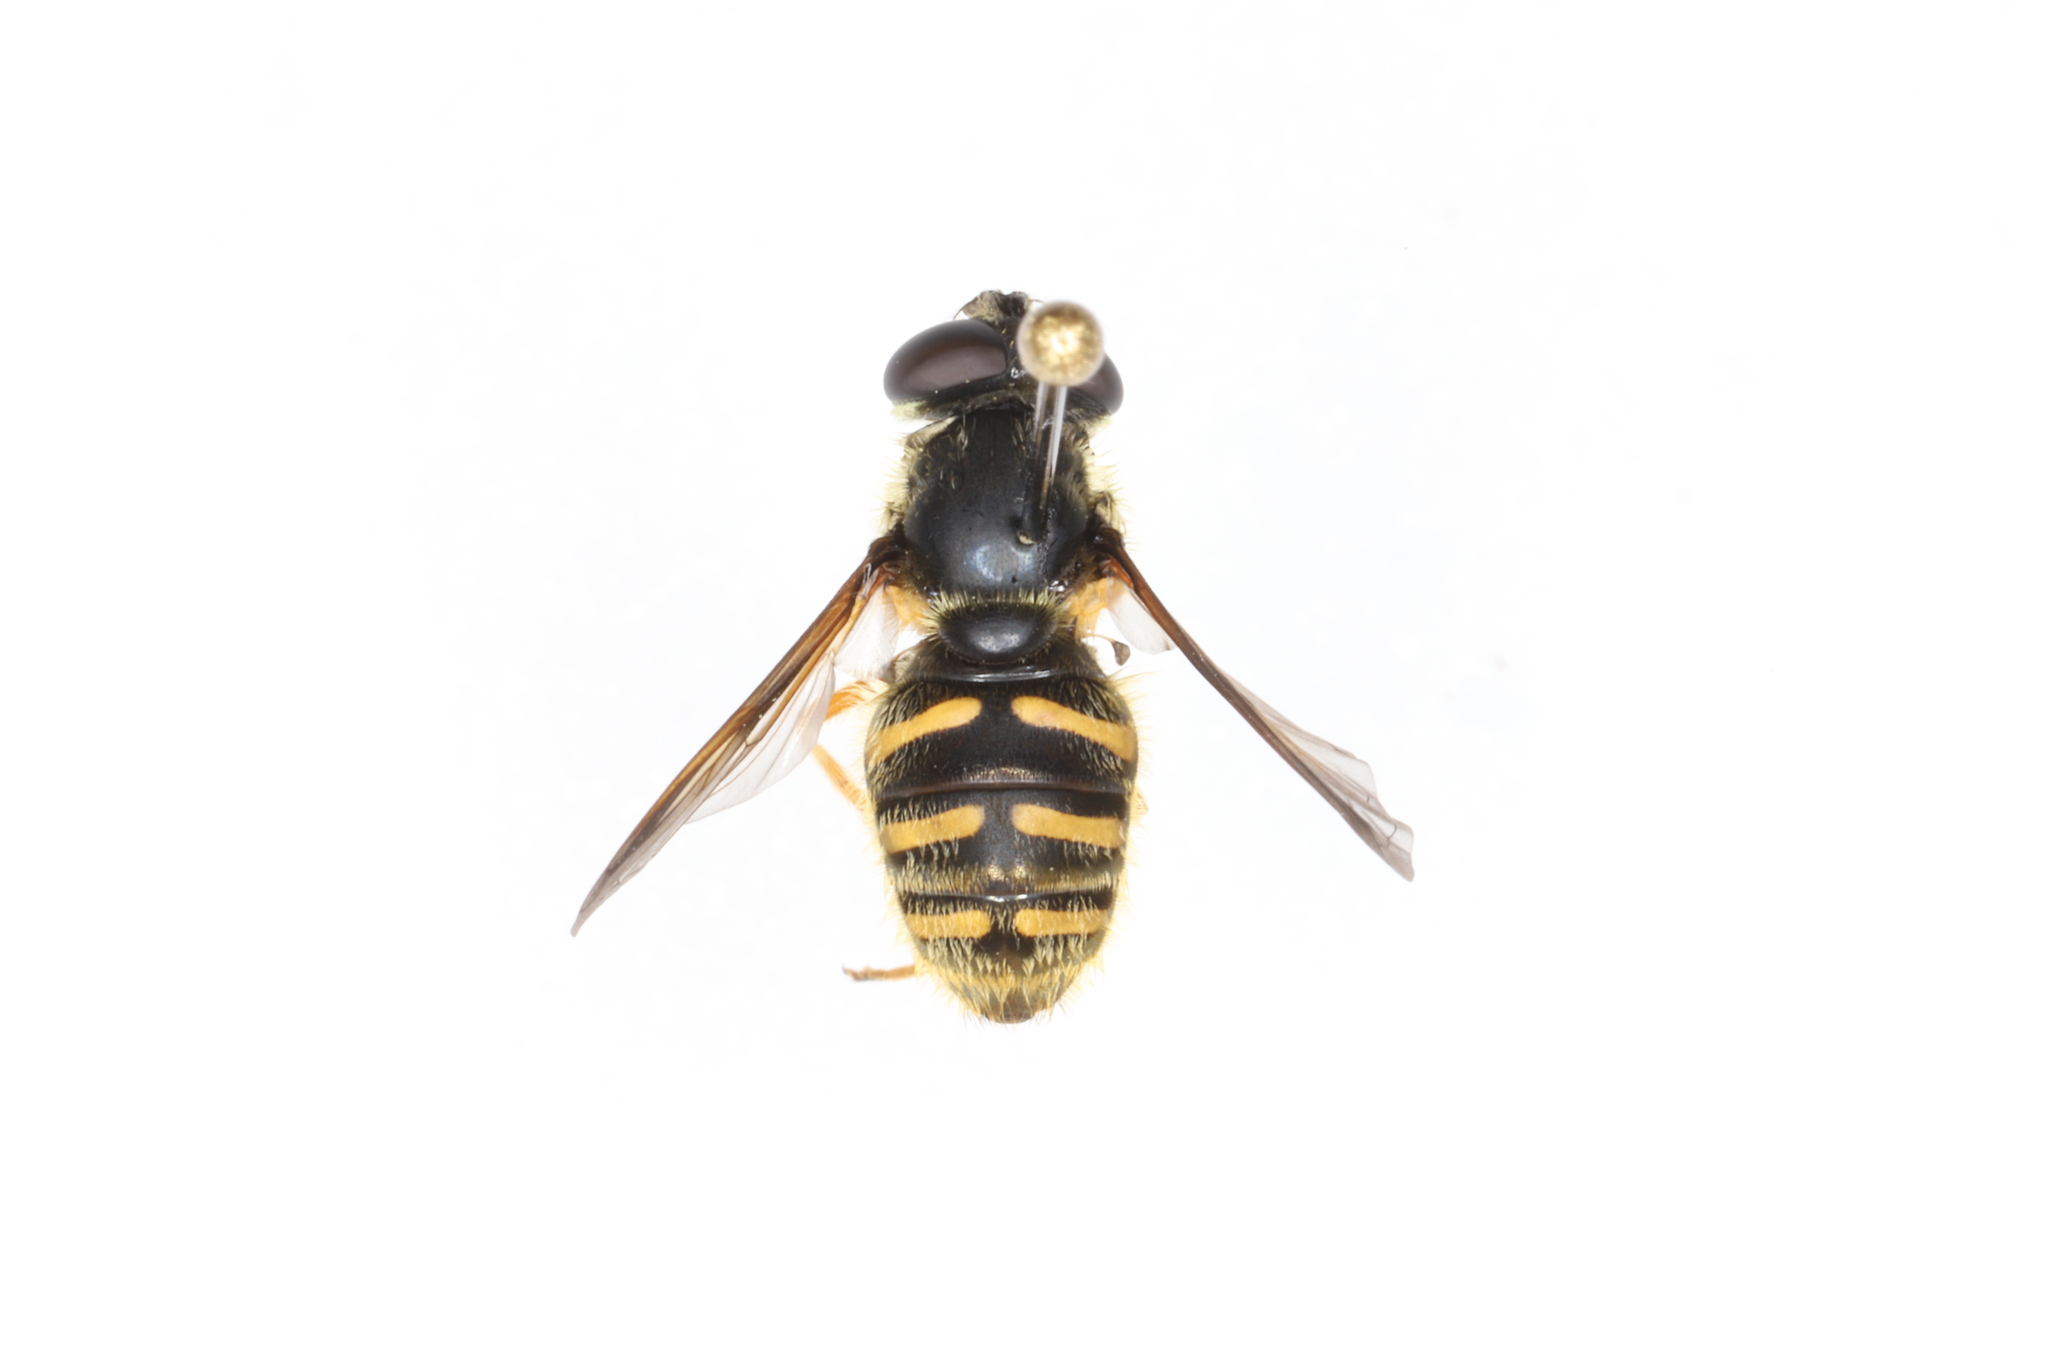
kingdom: Animalia
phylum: Arthropoda
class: Insecta
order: Diptera
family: Syrphidae
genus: Sericomyia
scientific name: Sericomyia chrysotoxoides
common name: Oblique-banded pond fly
